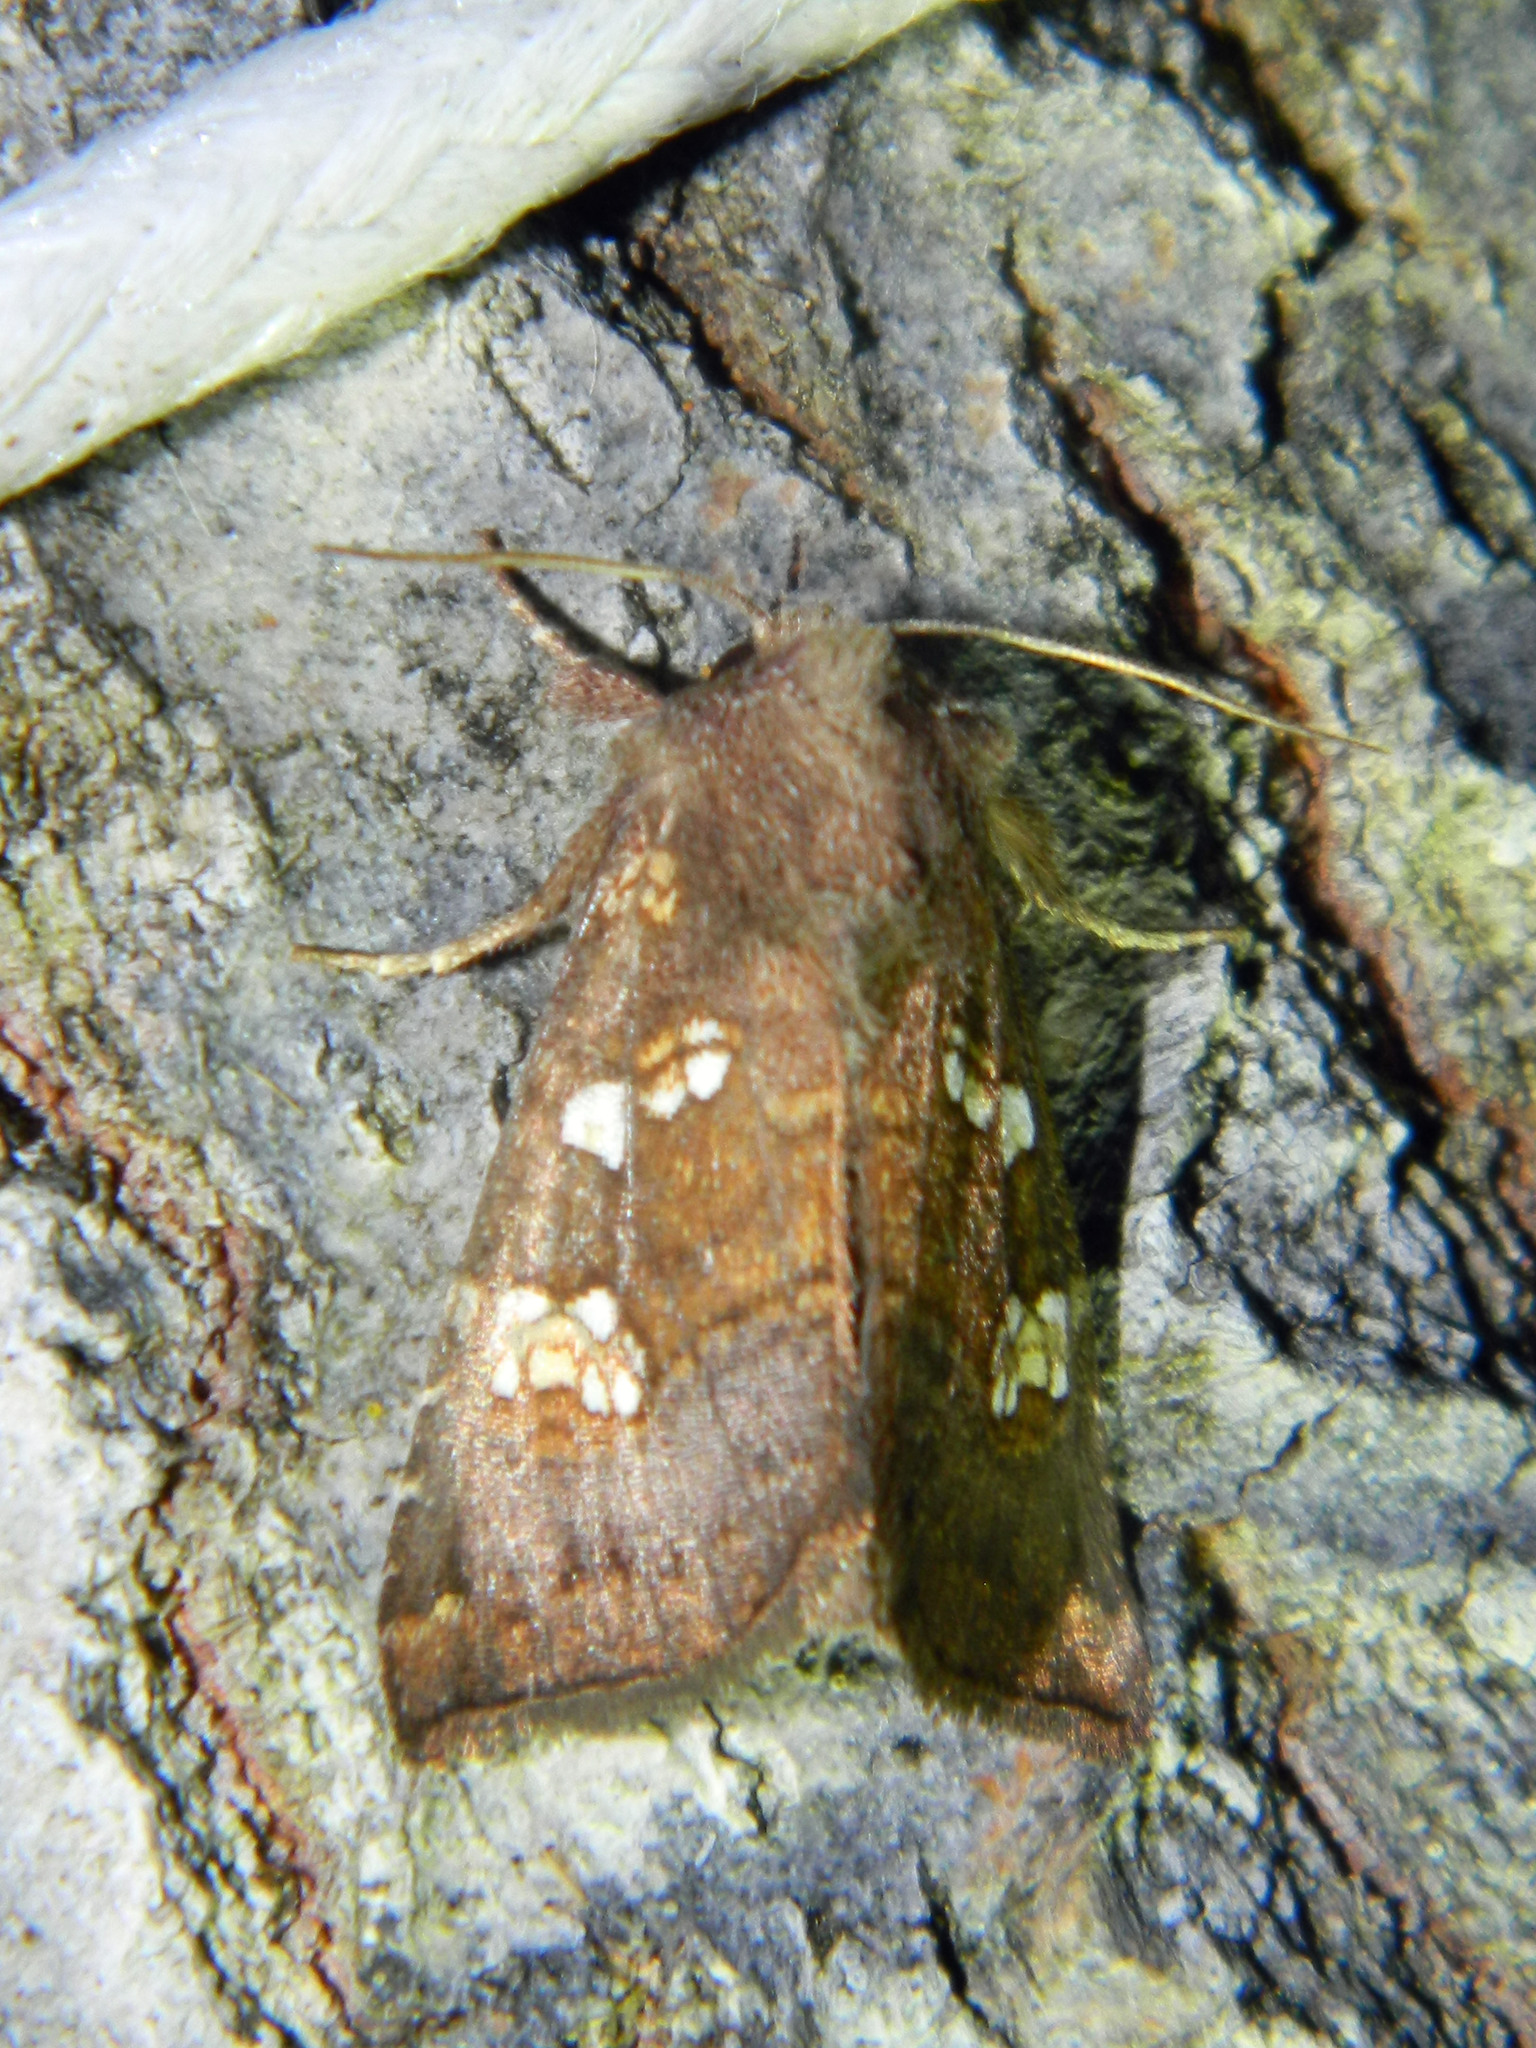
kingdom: Animalia
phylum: Arthropoda
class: Insecta
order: Lepidoptera
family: Noctuidae
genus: Papaipema
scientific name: Papaipema unimoda
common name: Meadow rue borer moth
